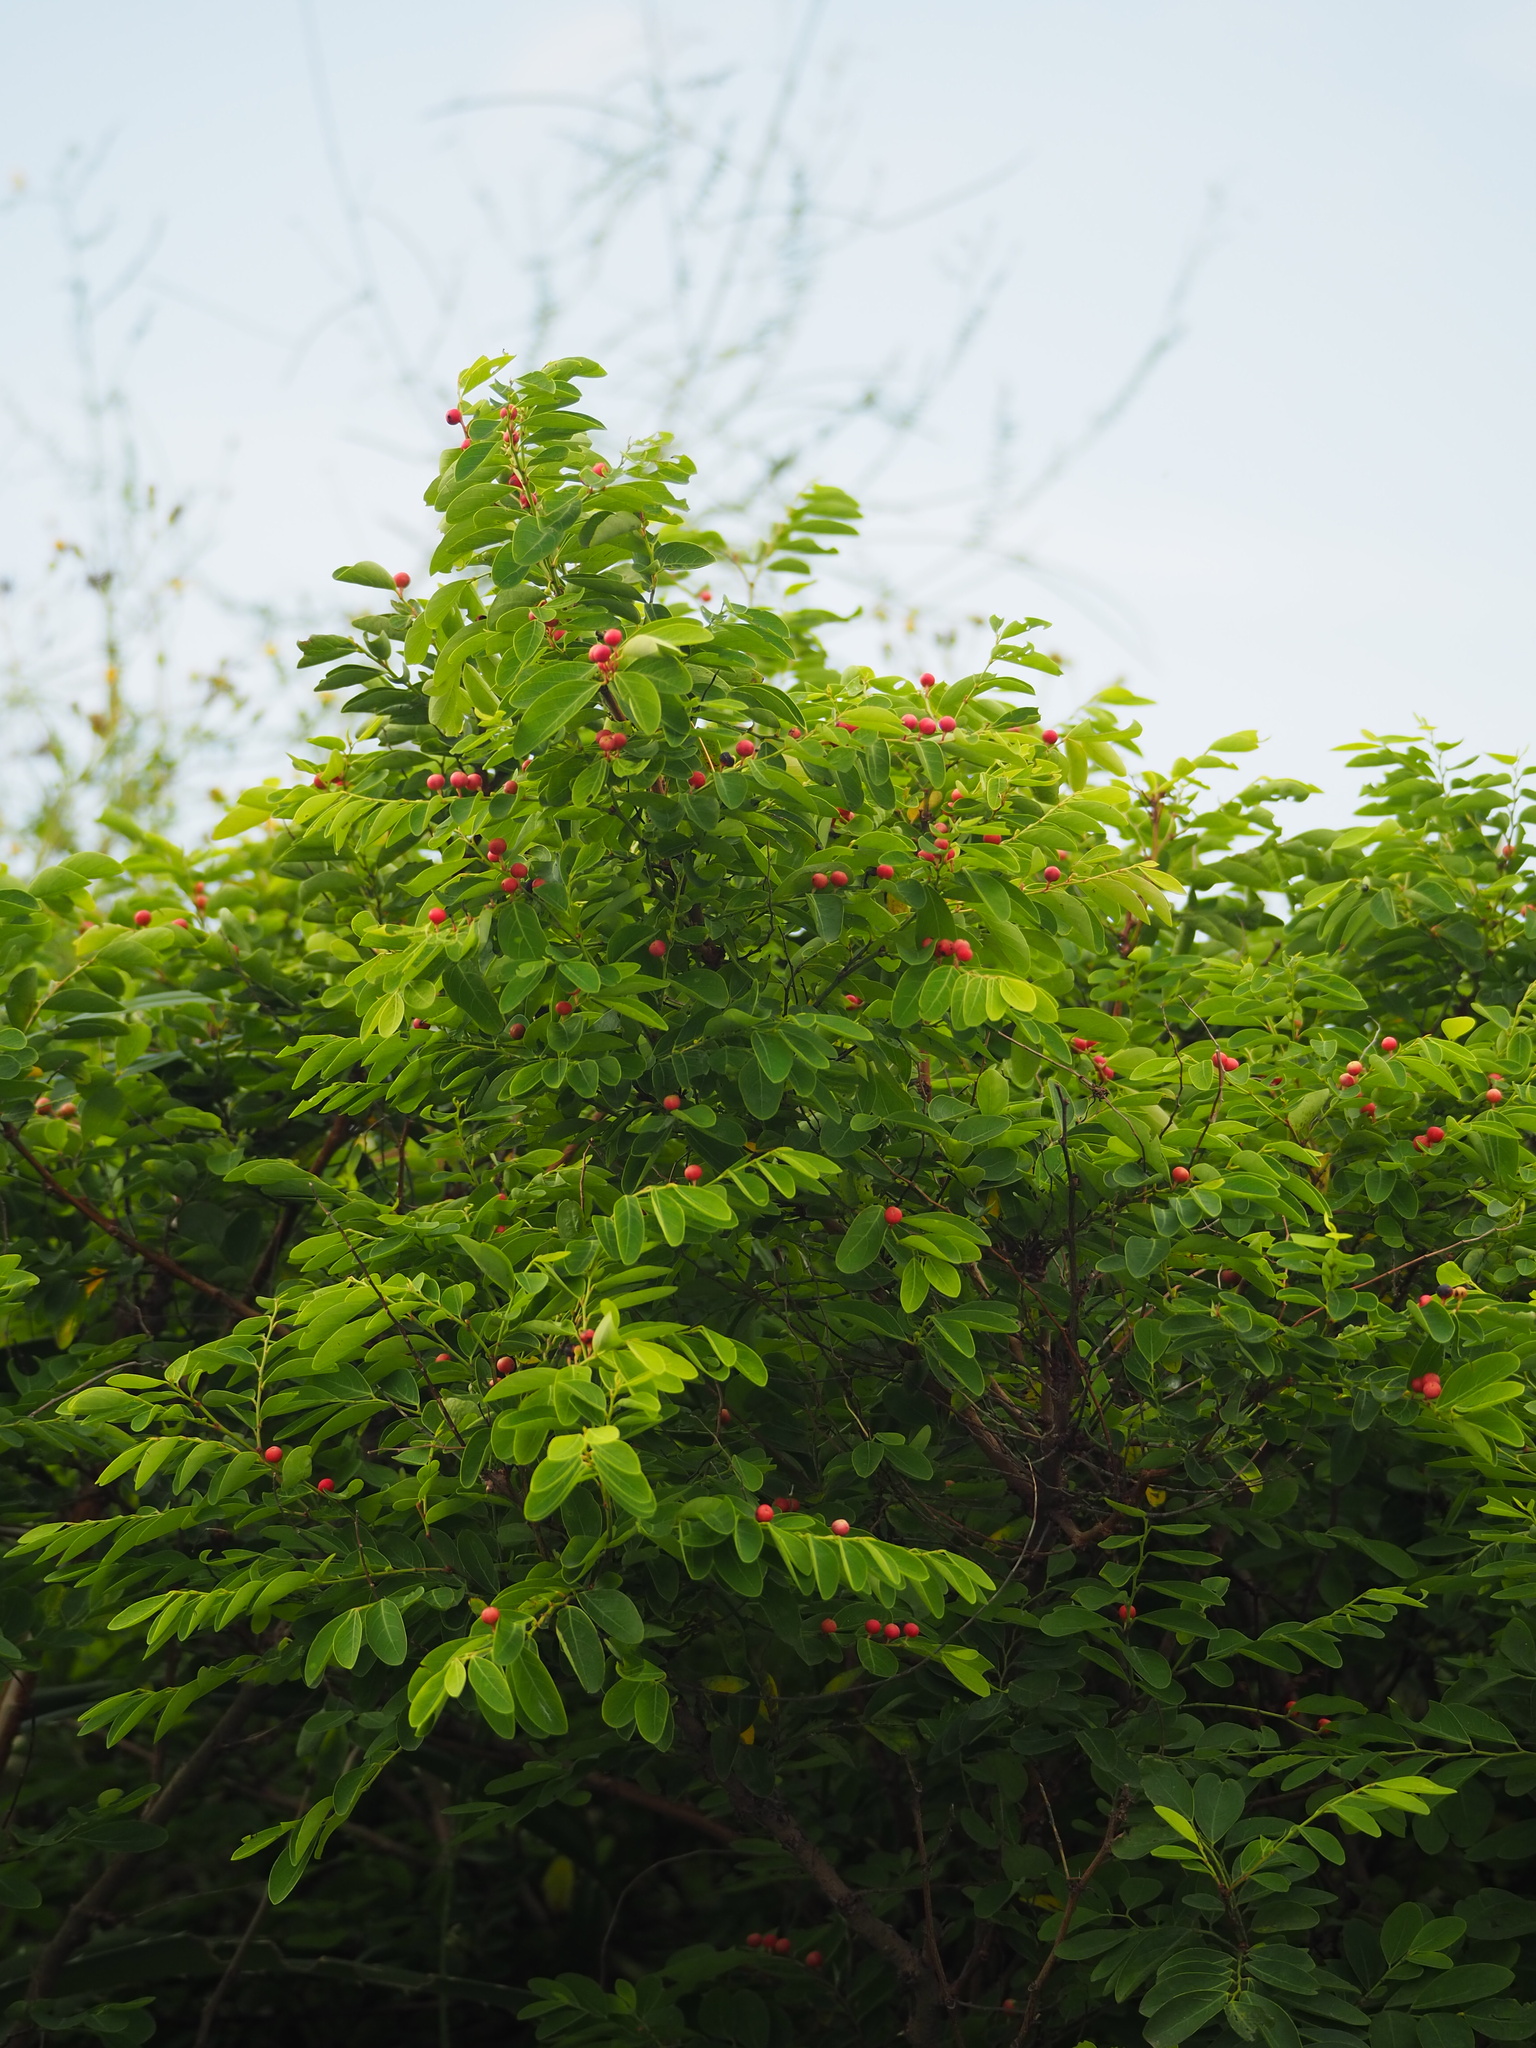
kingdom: Plantae
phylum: Tracheophyta
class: Magnoliopsida
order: Malpighiales
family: Phyllanthaceae
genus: Breynia
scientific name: Breynia vitis-idaea
